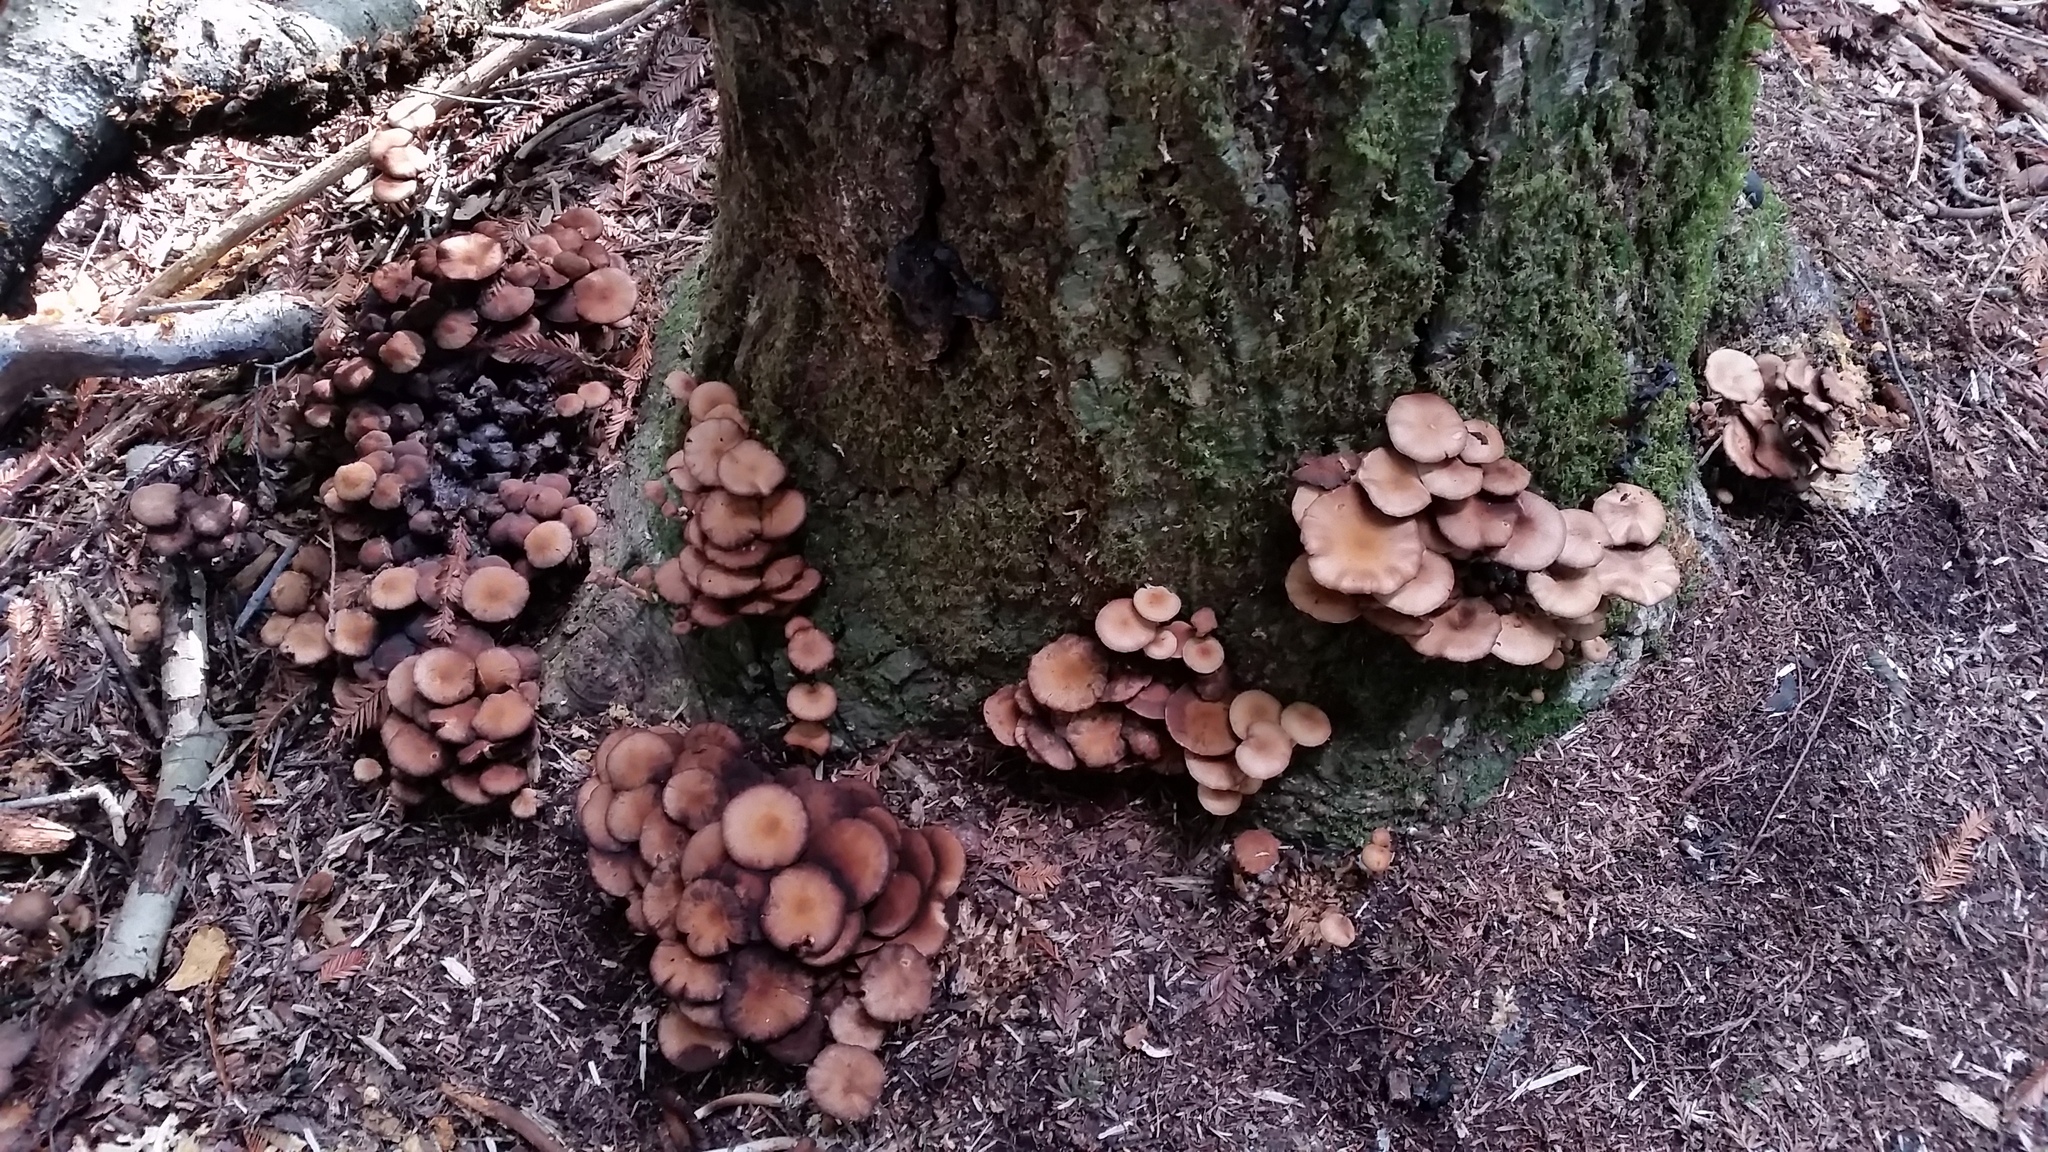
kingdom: Fungi
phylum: Basidiomycota
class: Agaricomycetes
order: Agaricales
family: Psathyrellaceae
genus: Psathyrella
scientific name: Psathyrella piluliformis
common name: Common stump brittlestem
